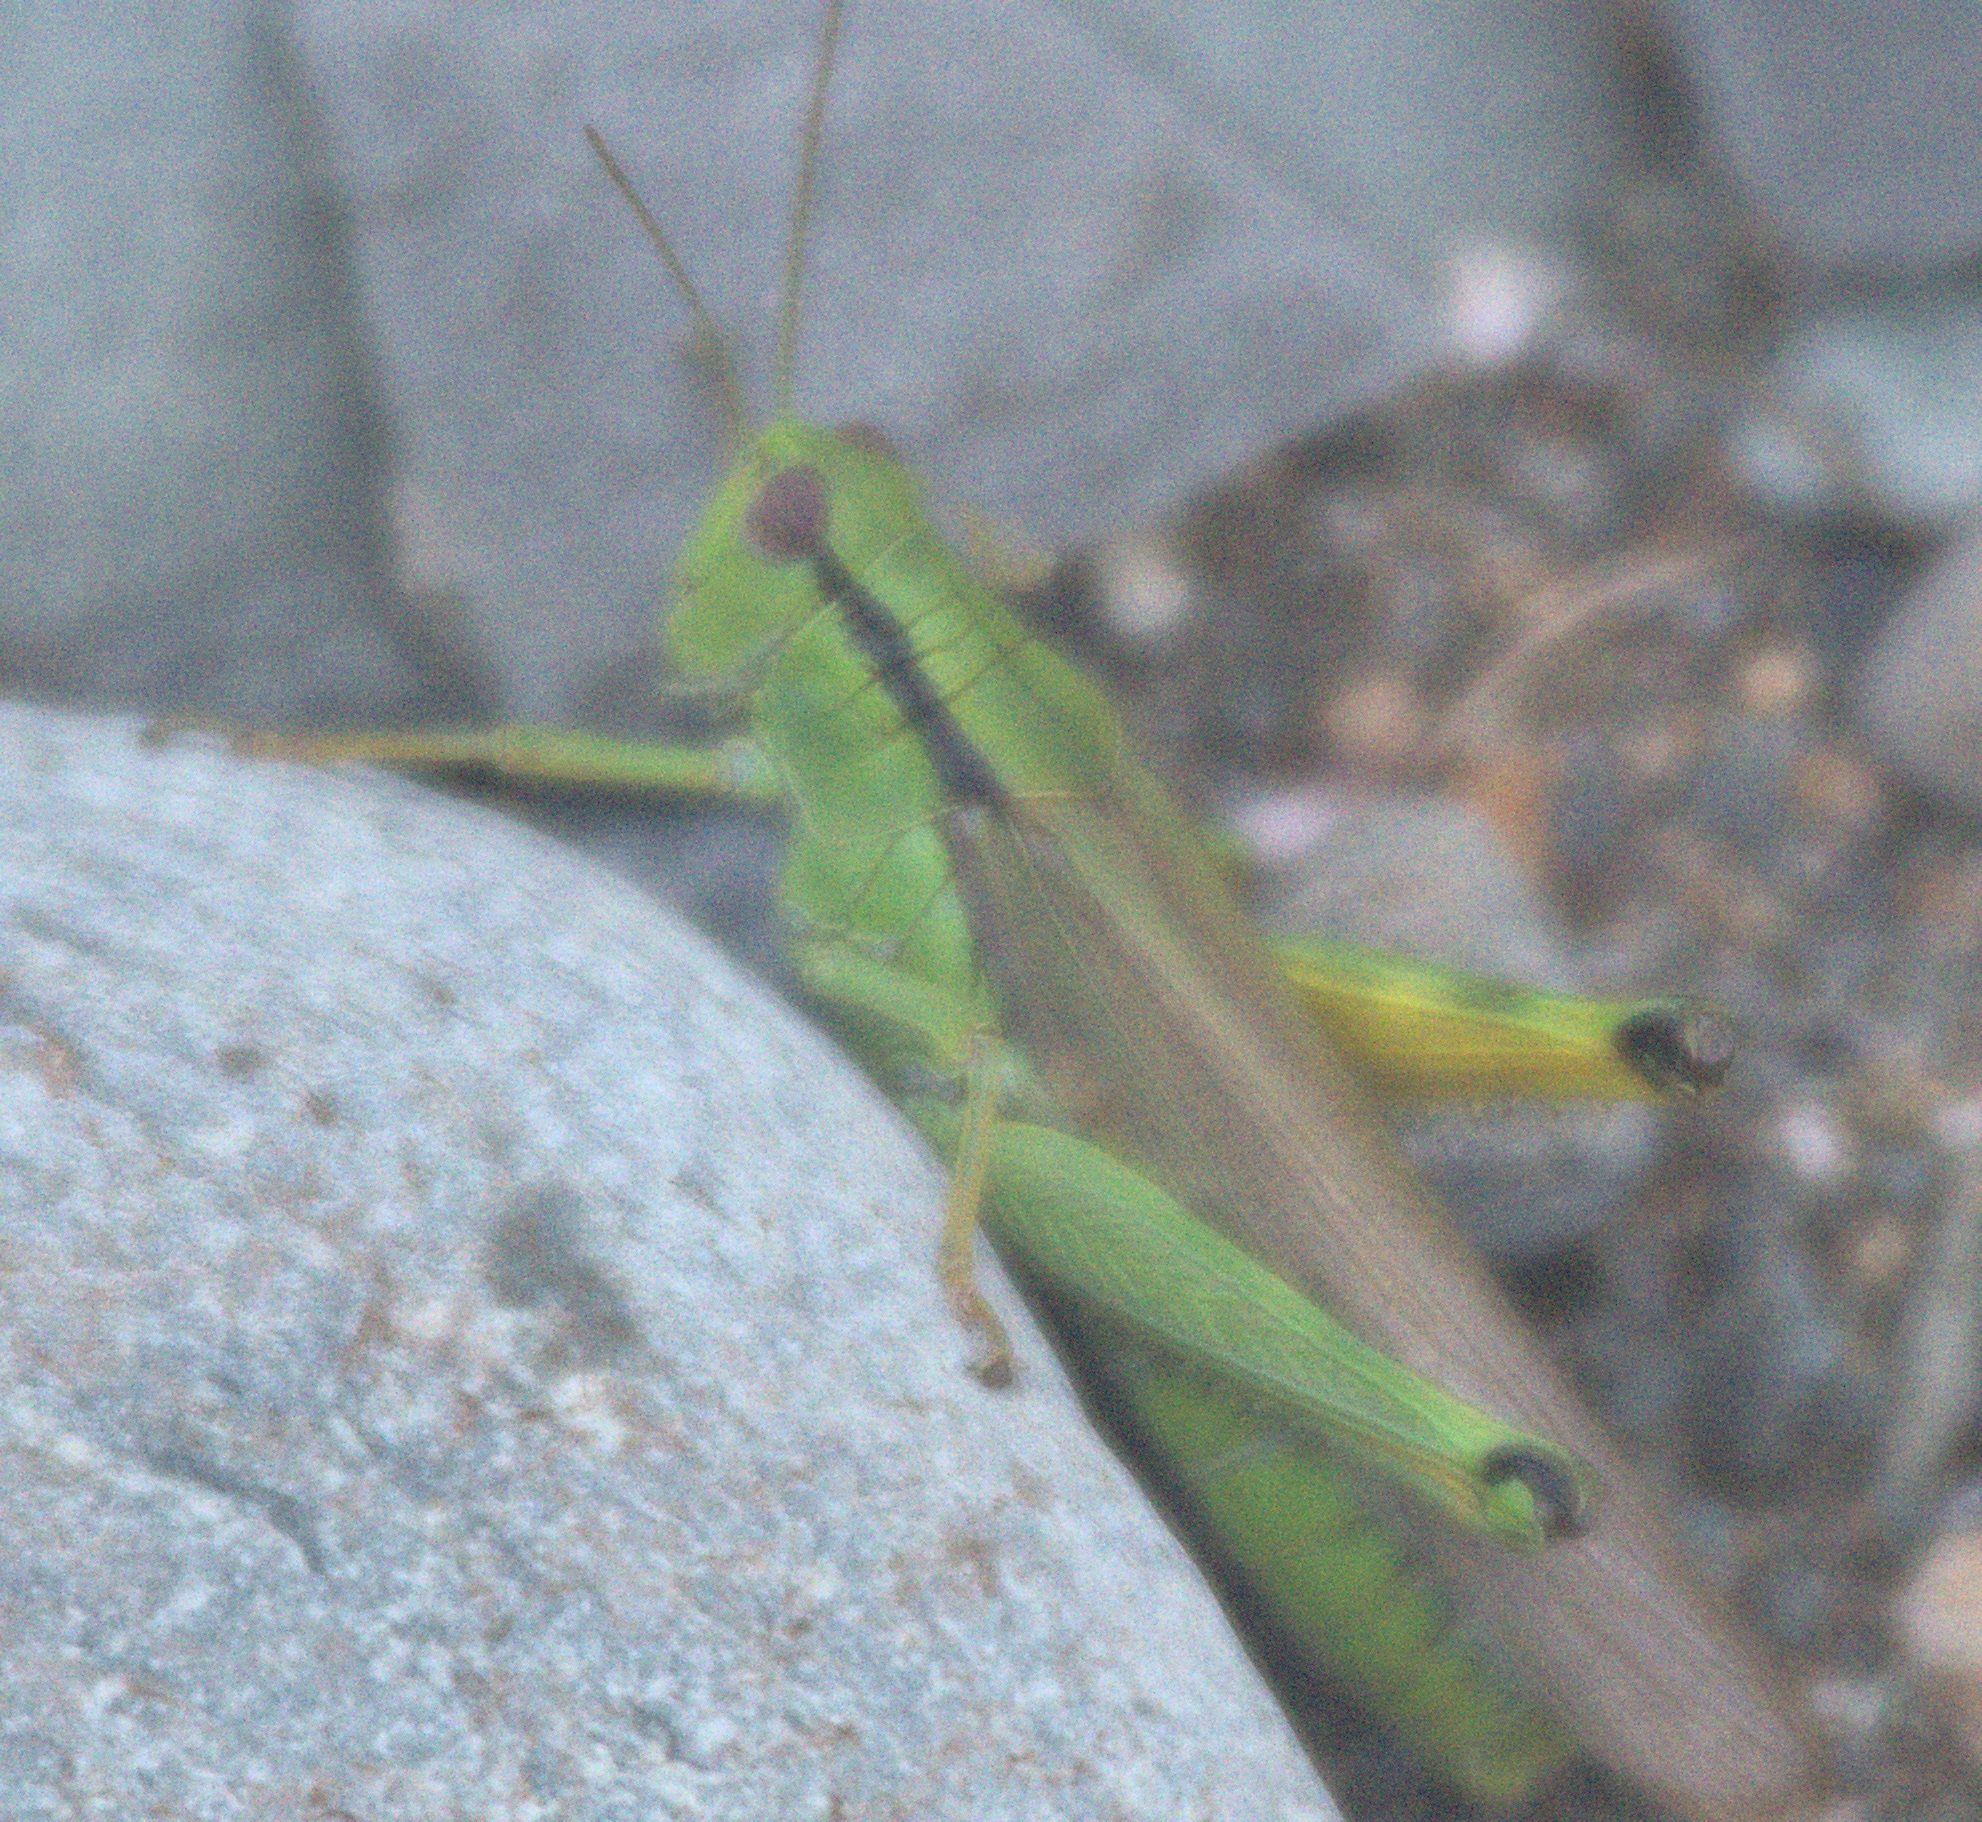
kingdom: Animalia
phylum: Arthropoda
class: Insecta
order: Orthoptera
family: Acrididae
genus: Confusacris
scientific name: Confusacris longipennis
